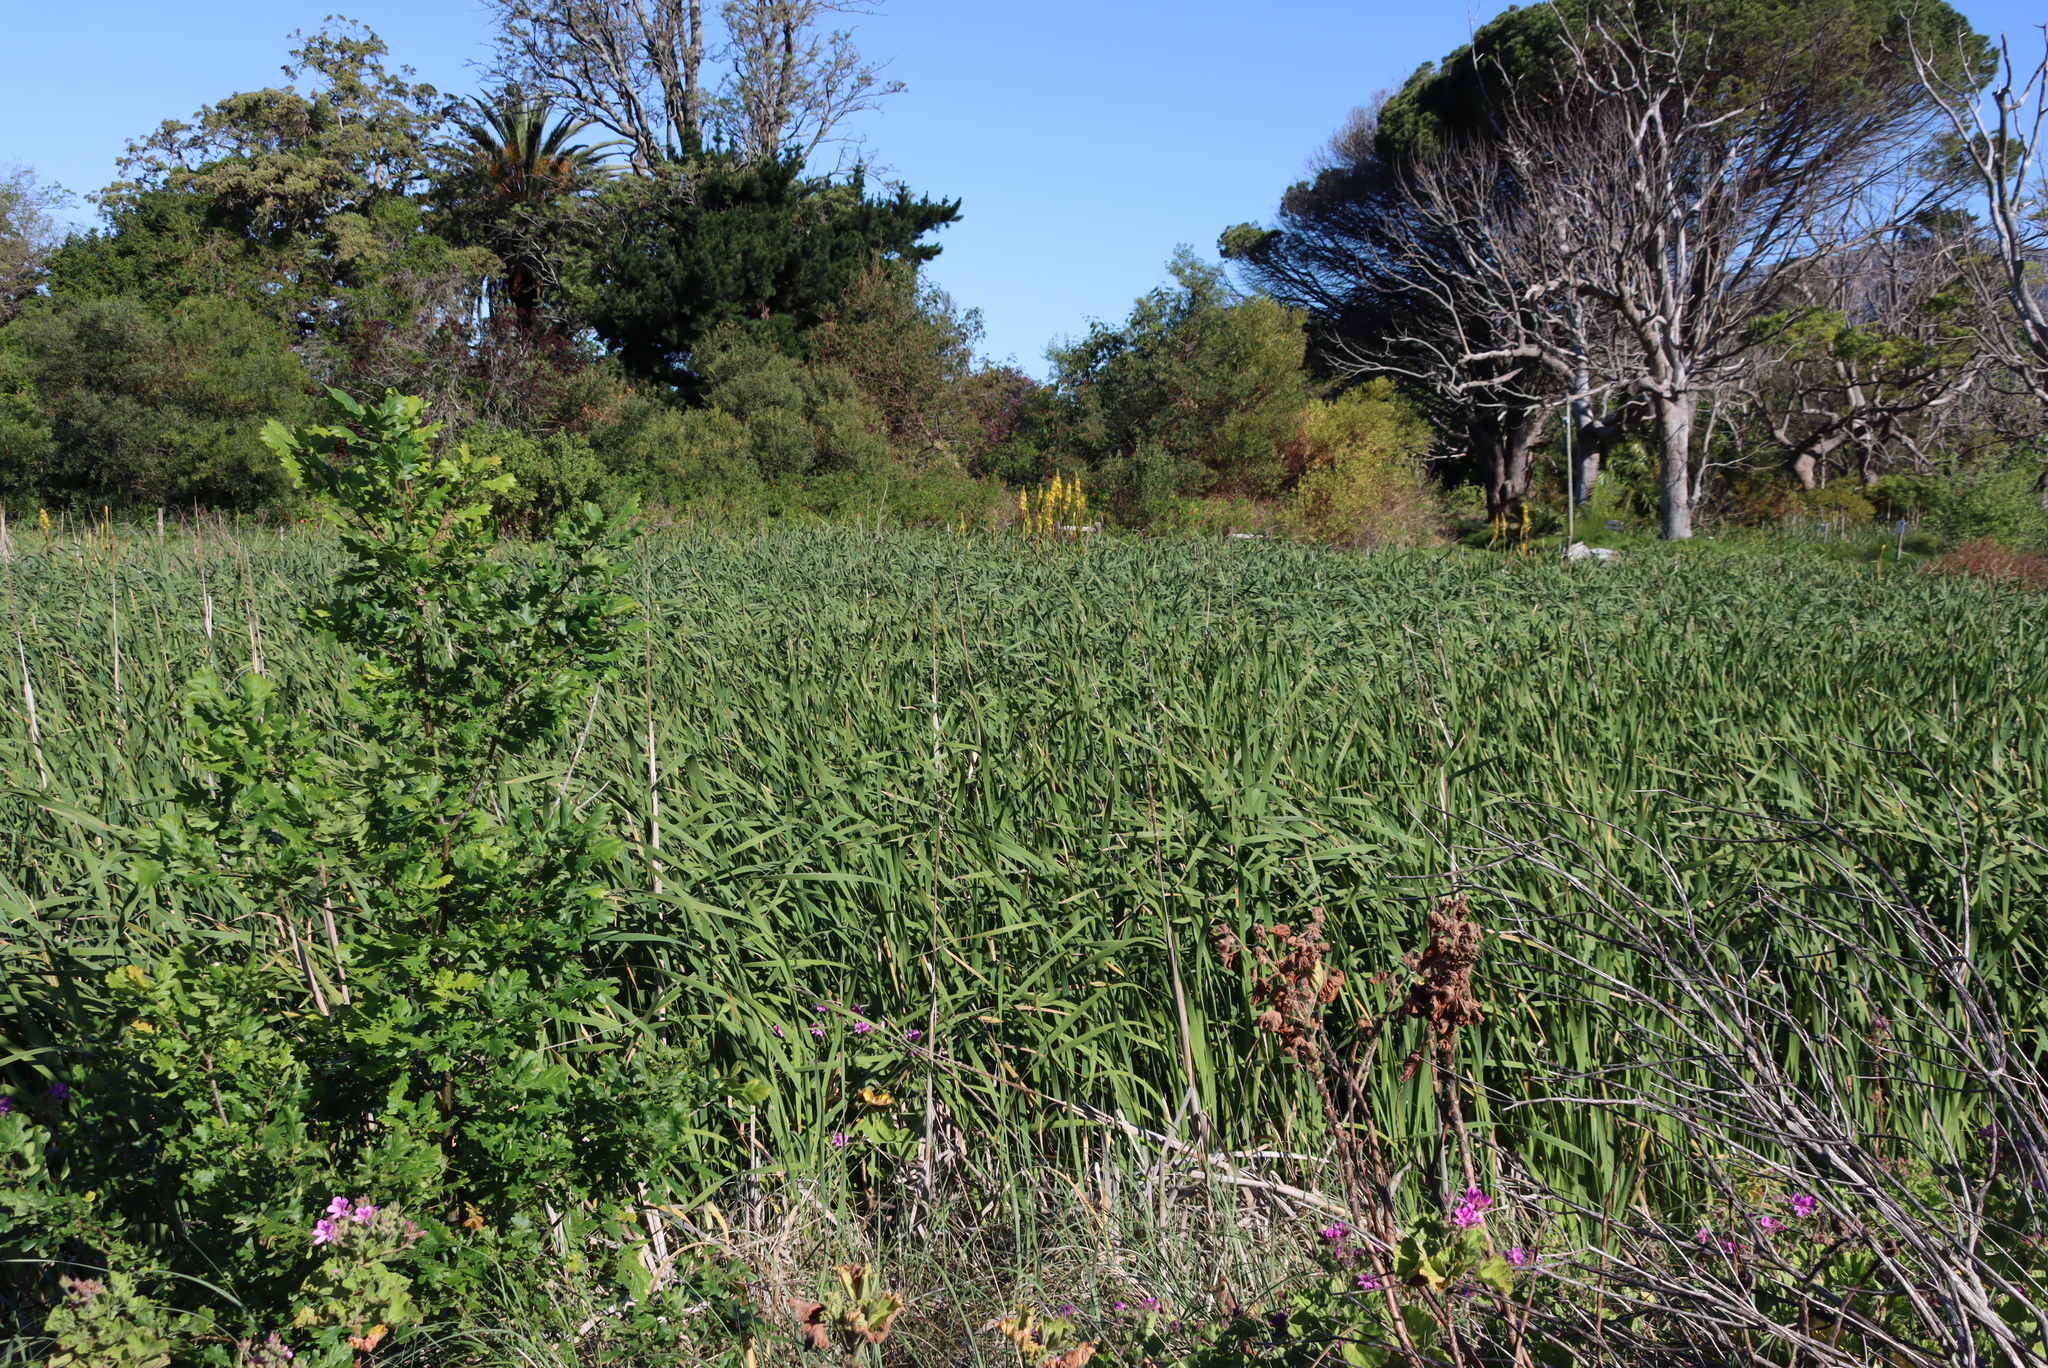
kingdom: Plantae
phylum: Tracheophyta
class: Liliopsida
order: Commelinales
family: Haemodoraceae
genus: Wachendorfia
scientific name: Wachendorfia thyrsiflora
